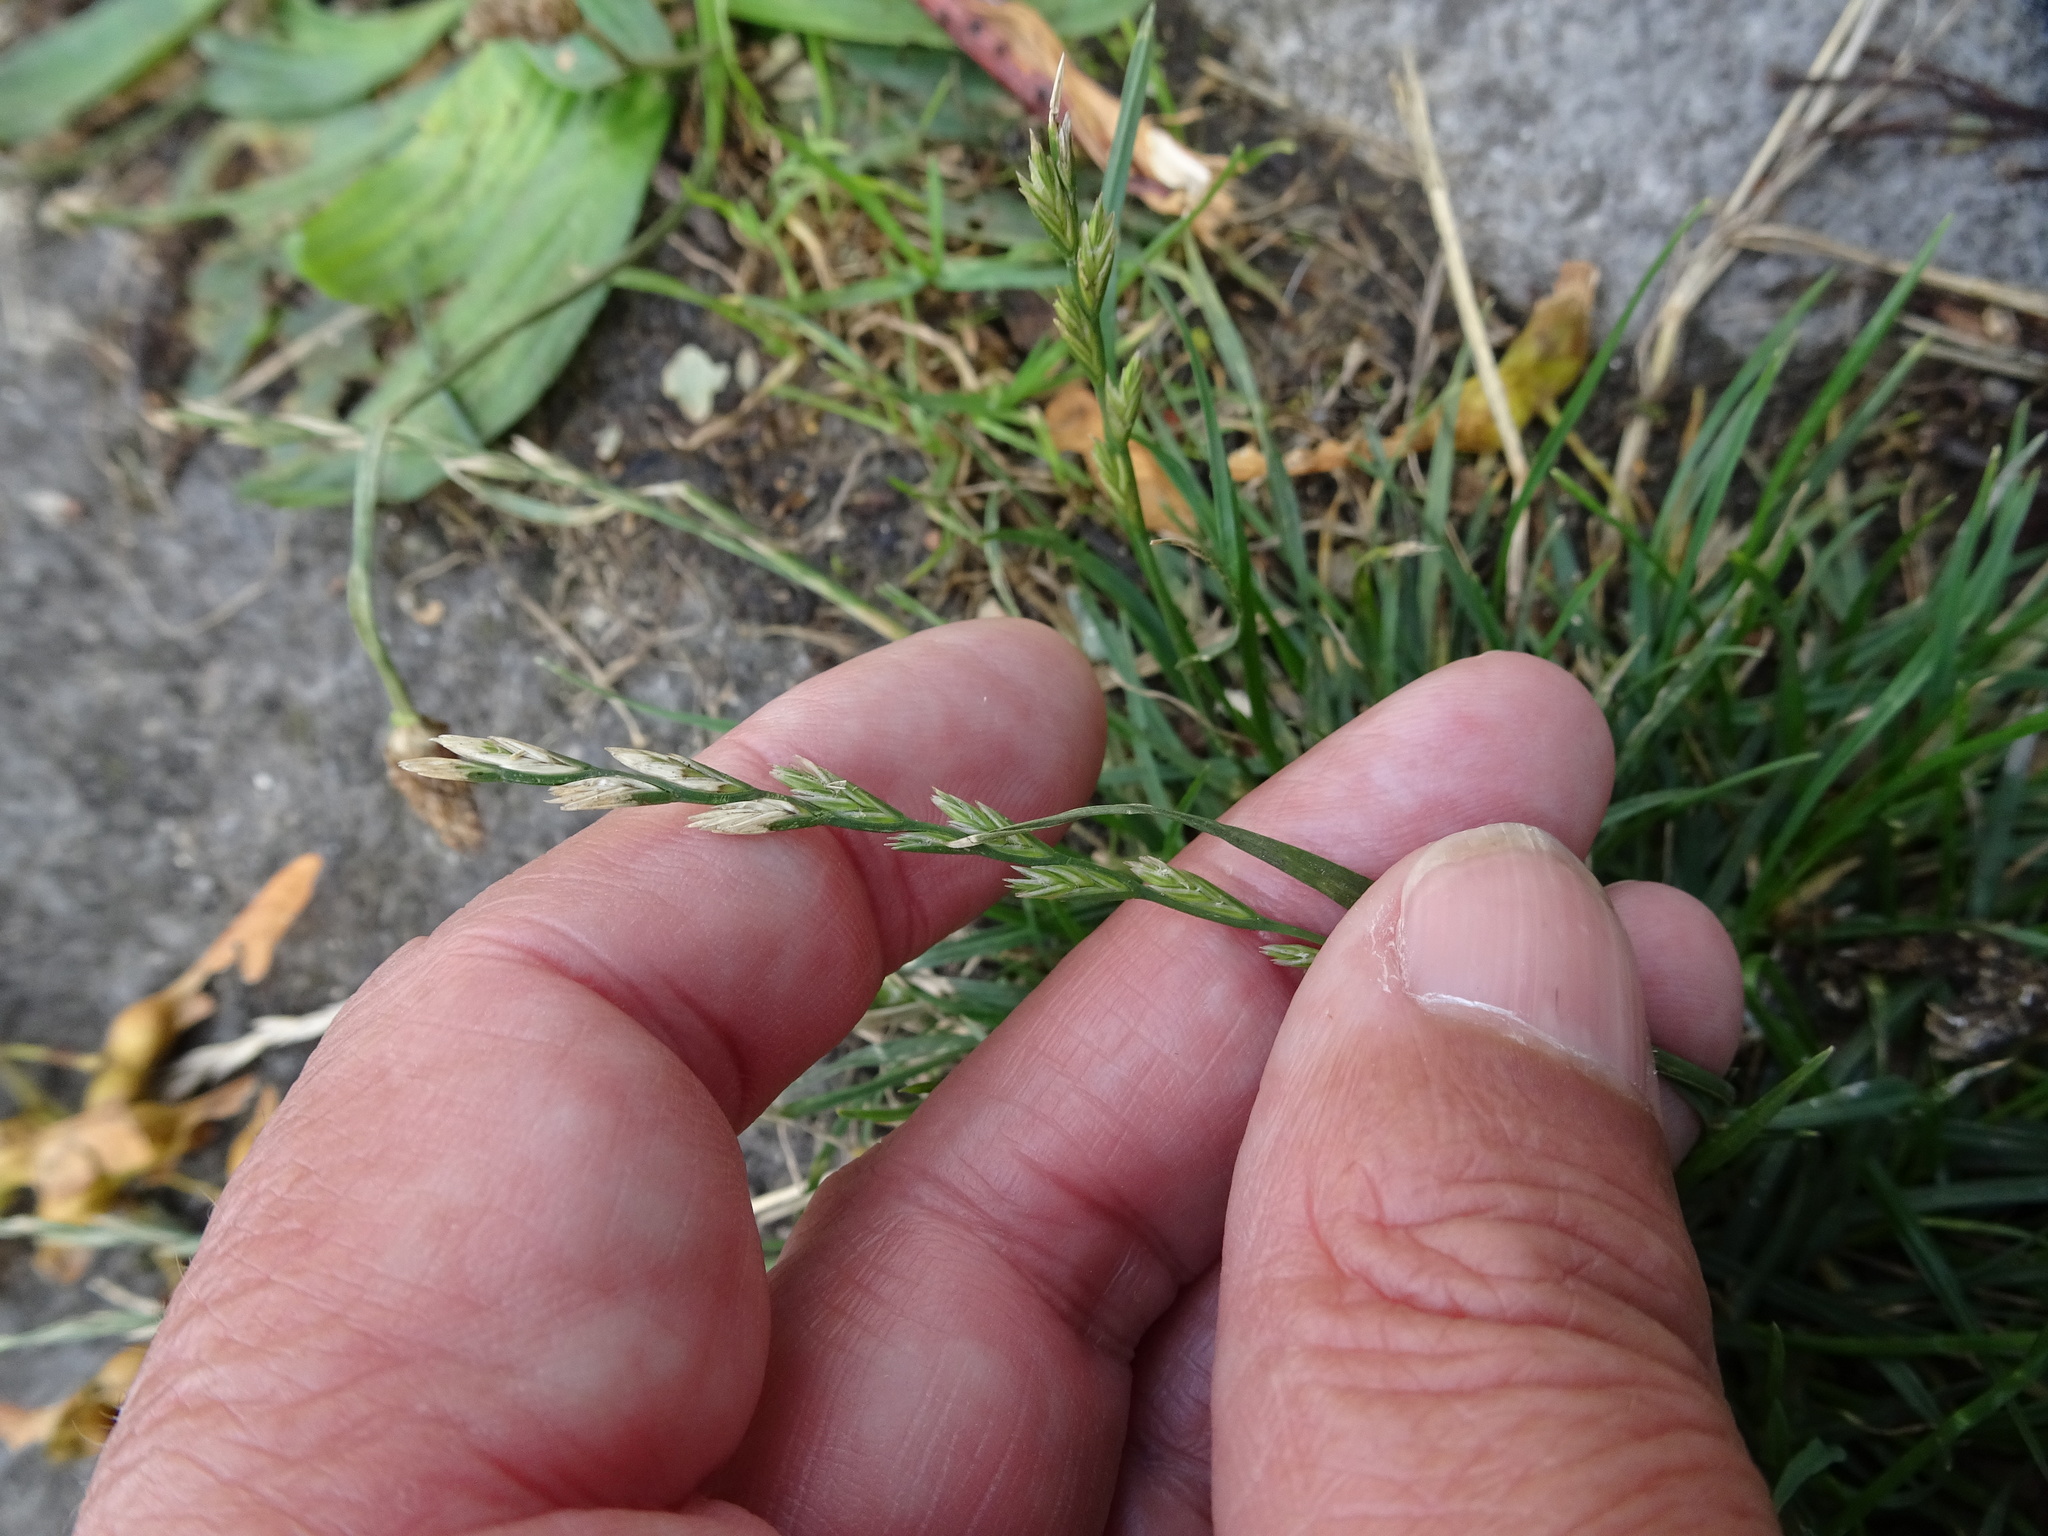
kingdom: Plantae
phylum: Tracheophyta
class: Liliopsida
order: Poales
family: Poaceae
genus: Lolium
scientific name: Lolium perenne
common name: Perennial ryegrass
